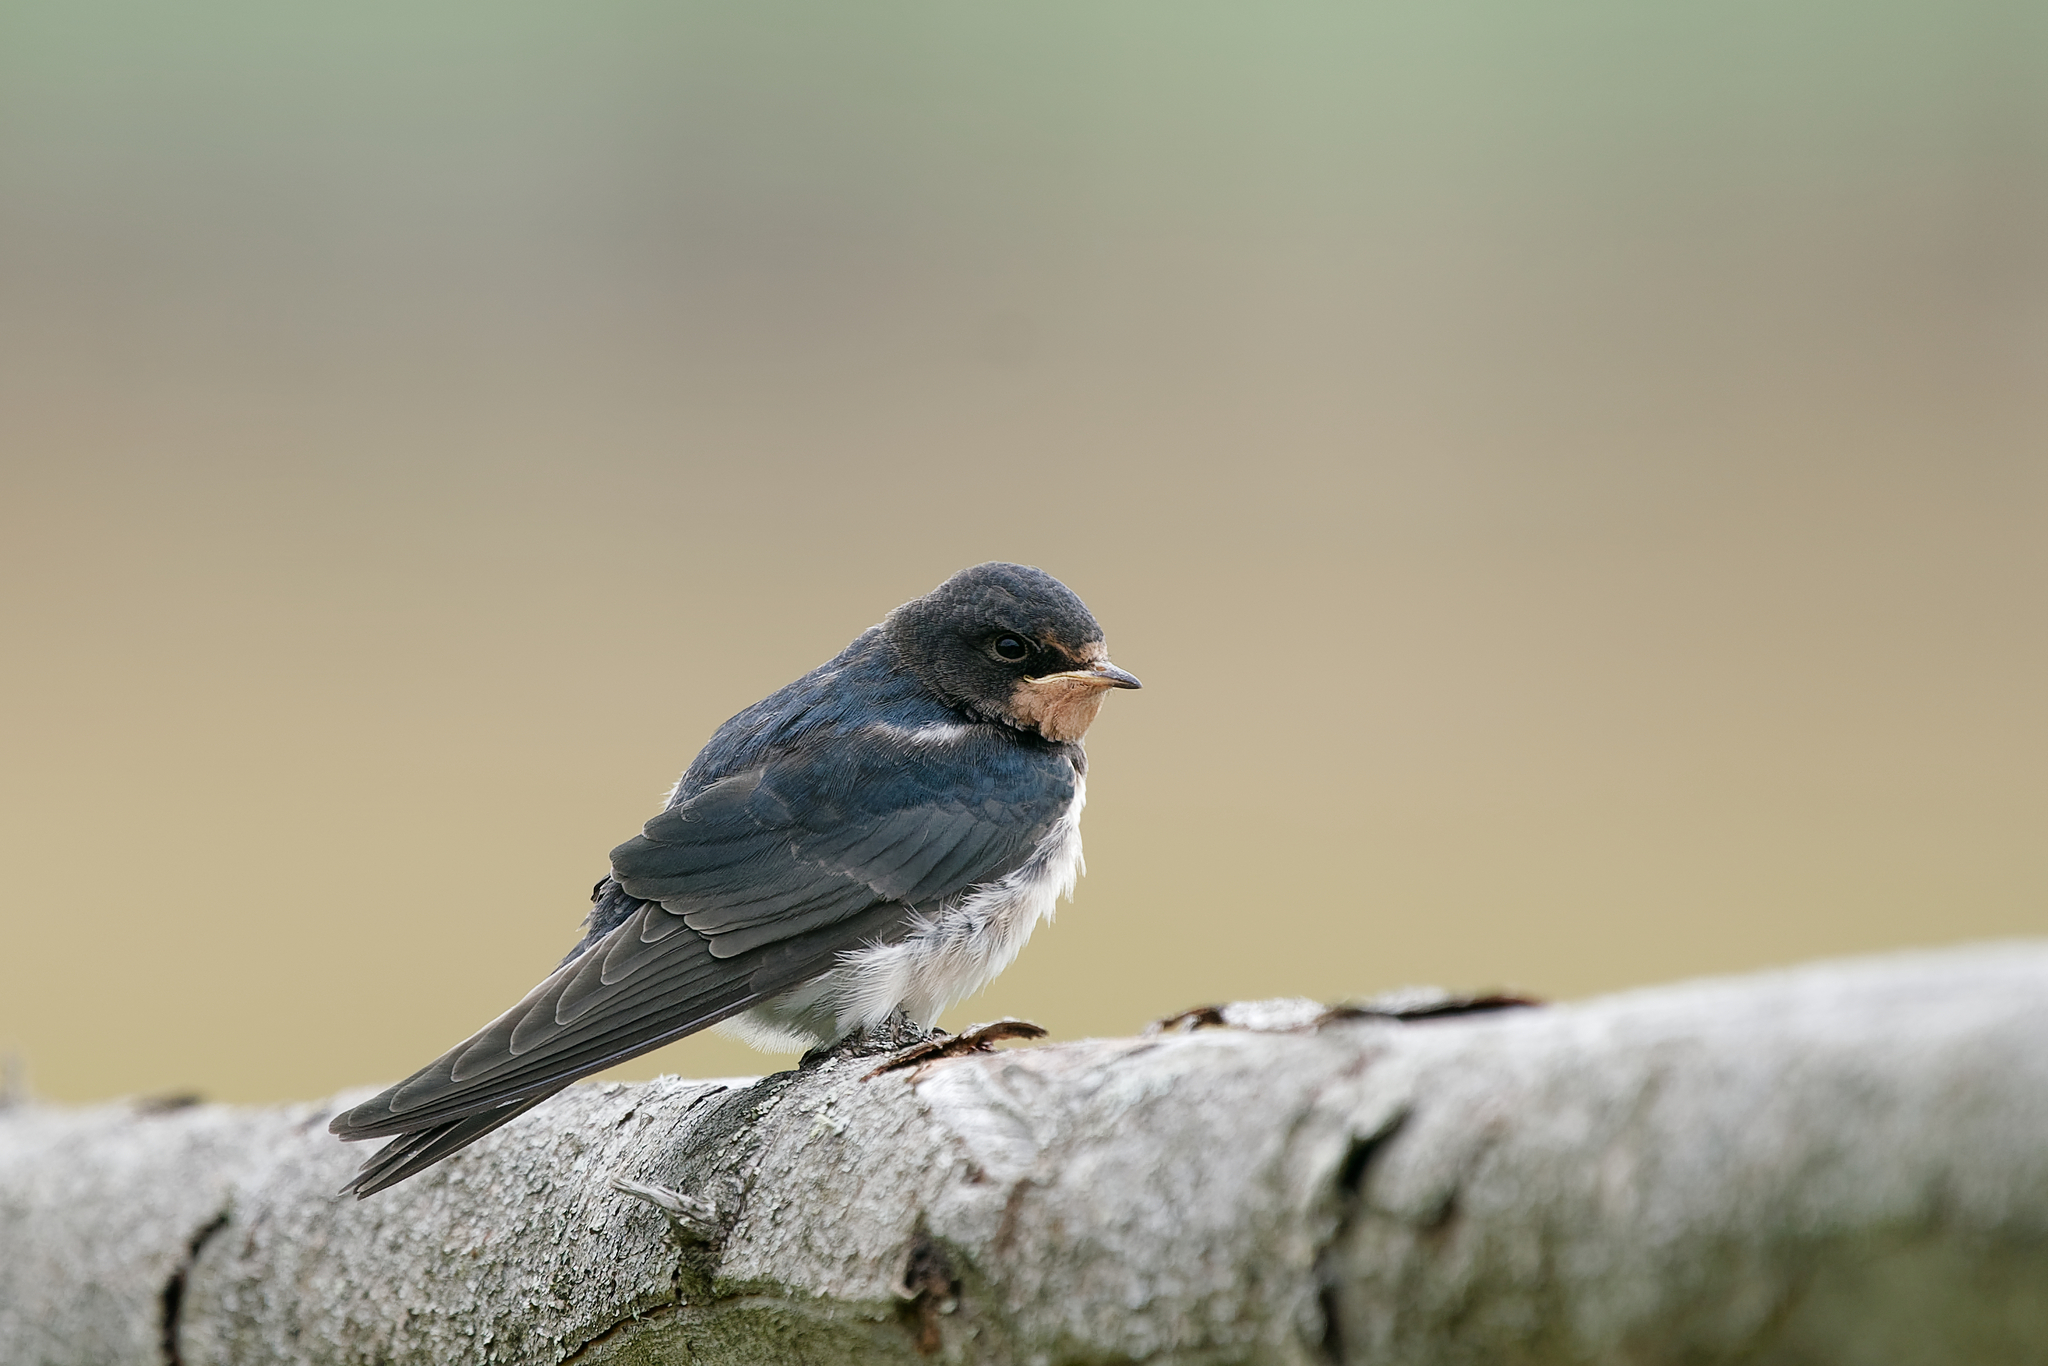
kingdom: Animalia
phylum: Chordata
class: Aves
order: Passeriformes
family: Hirundinidae
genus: Hirundo
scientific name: Hirundo rustica
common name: Barn swallow
